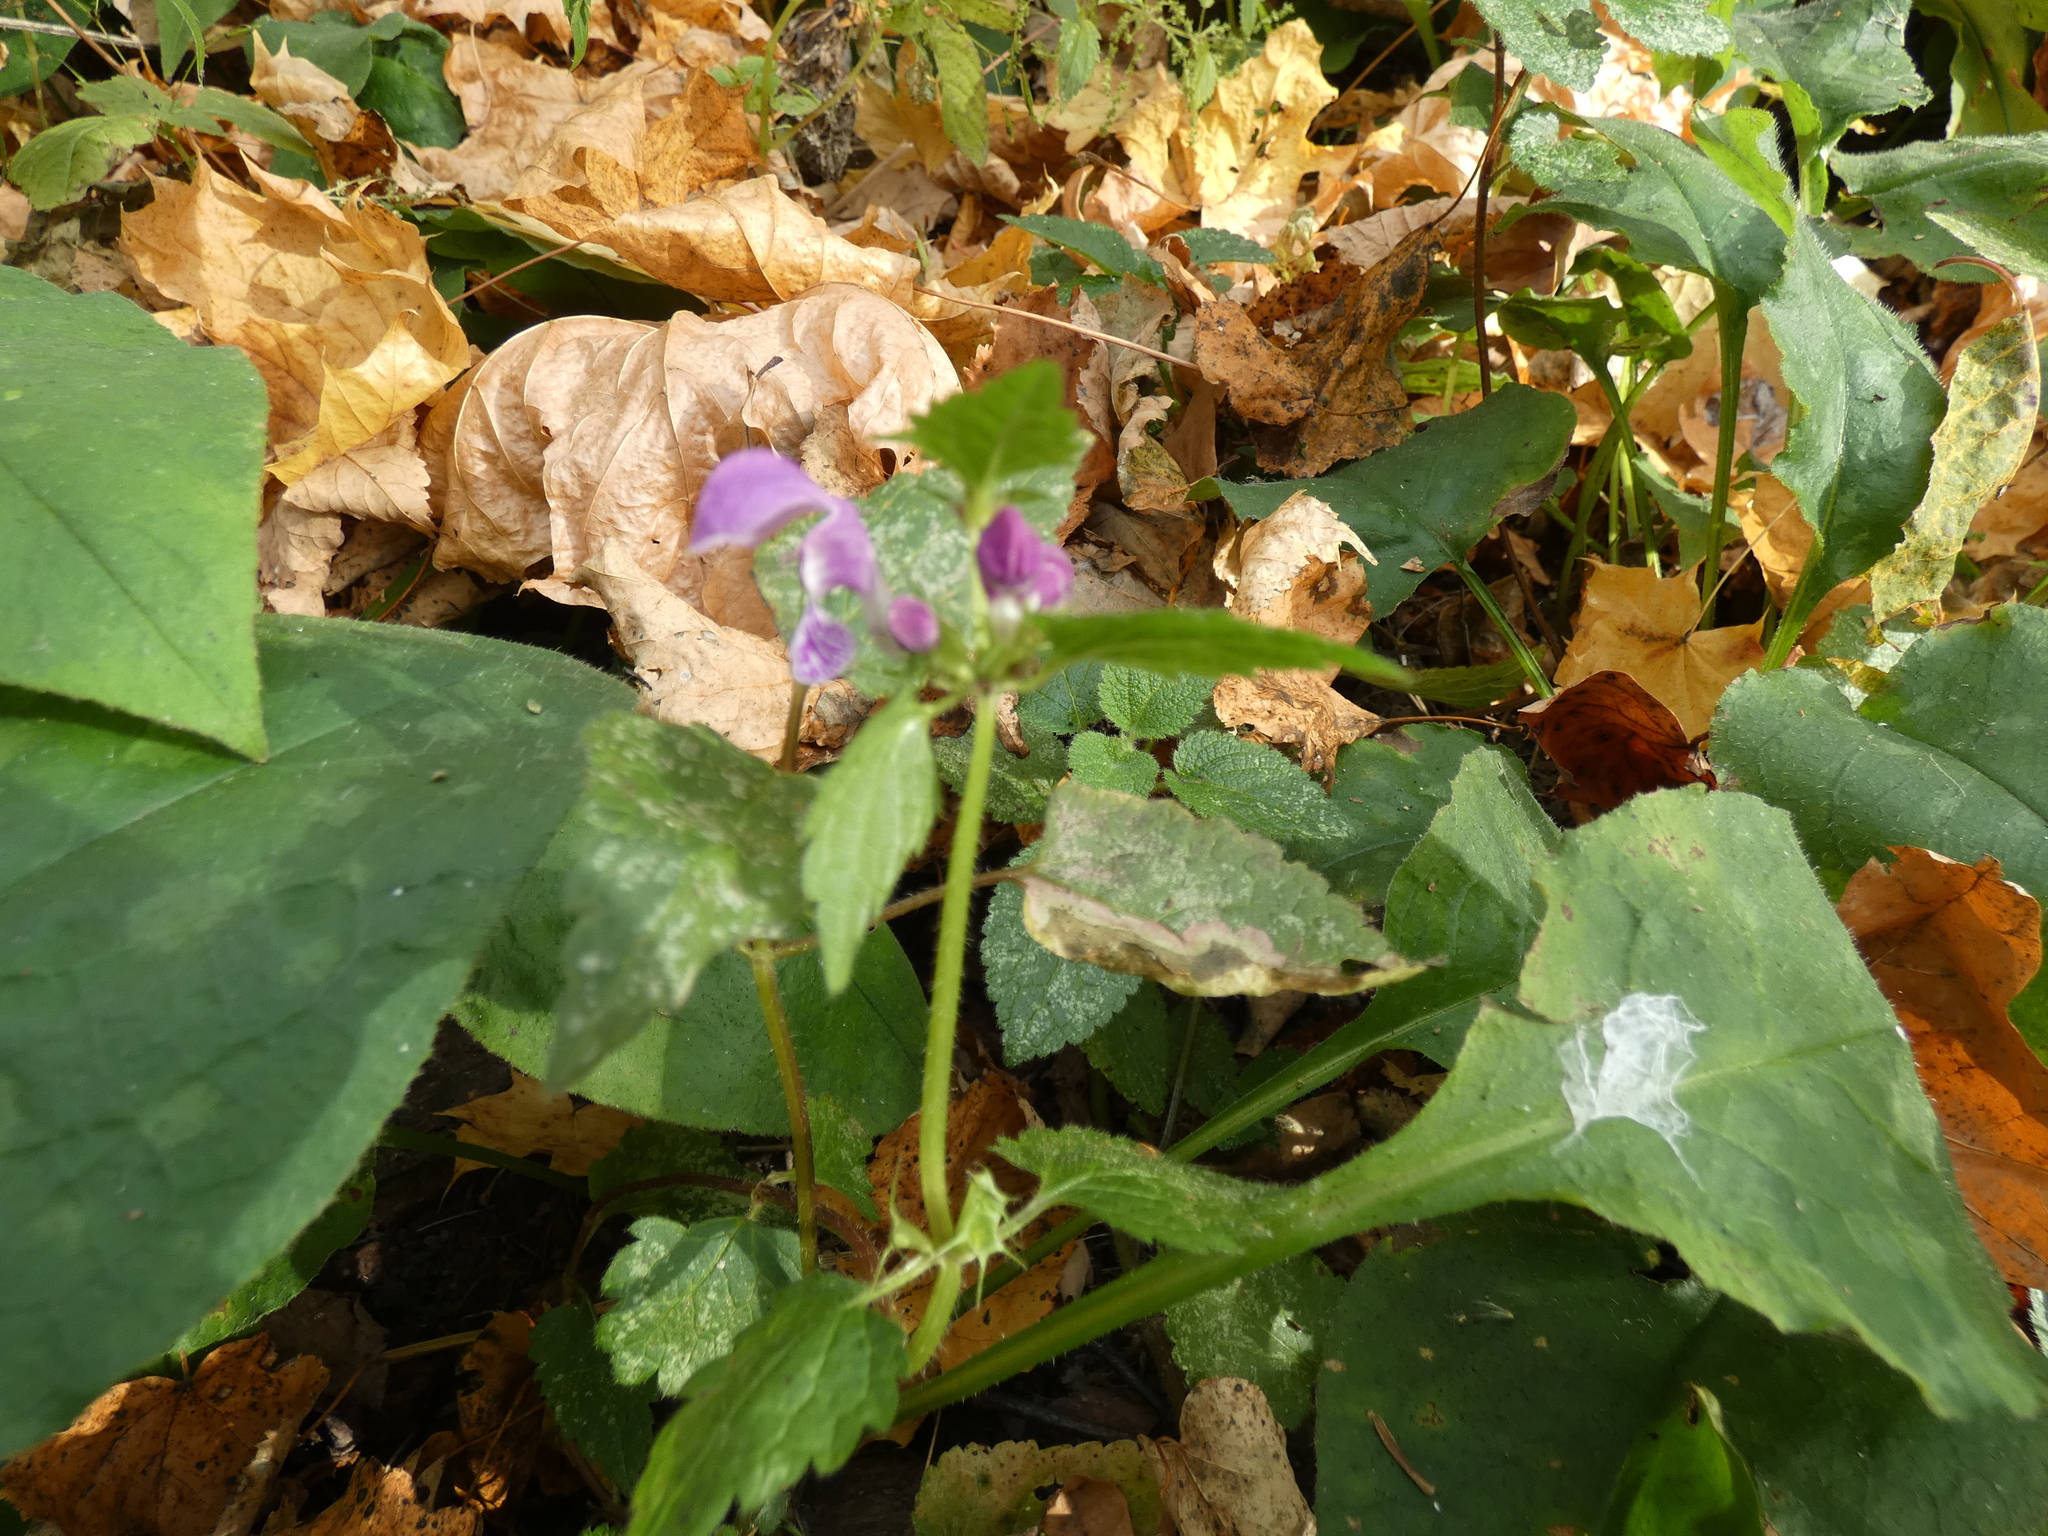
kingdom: Plantae
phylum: Tracheophyta
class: Magnoliopsida
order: Lamiales
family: Lamiaceae
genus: Lamium
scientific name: Lamium maculatum
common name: Spotted dead-nettle
